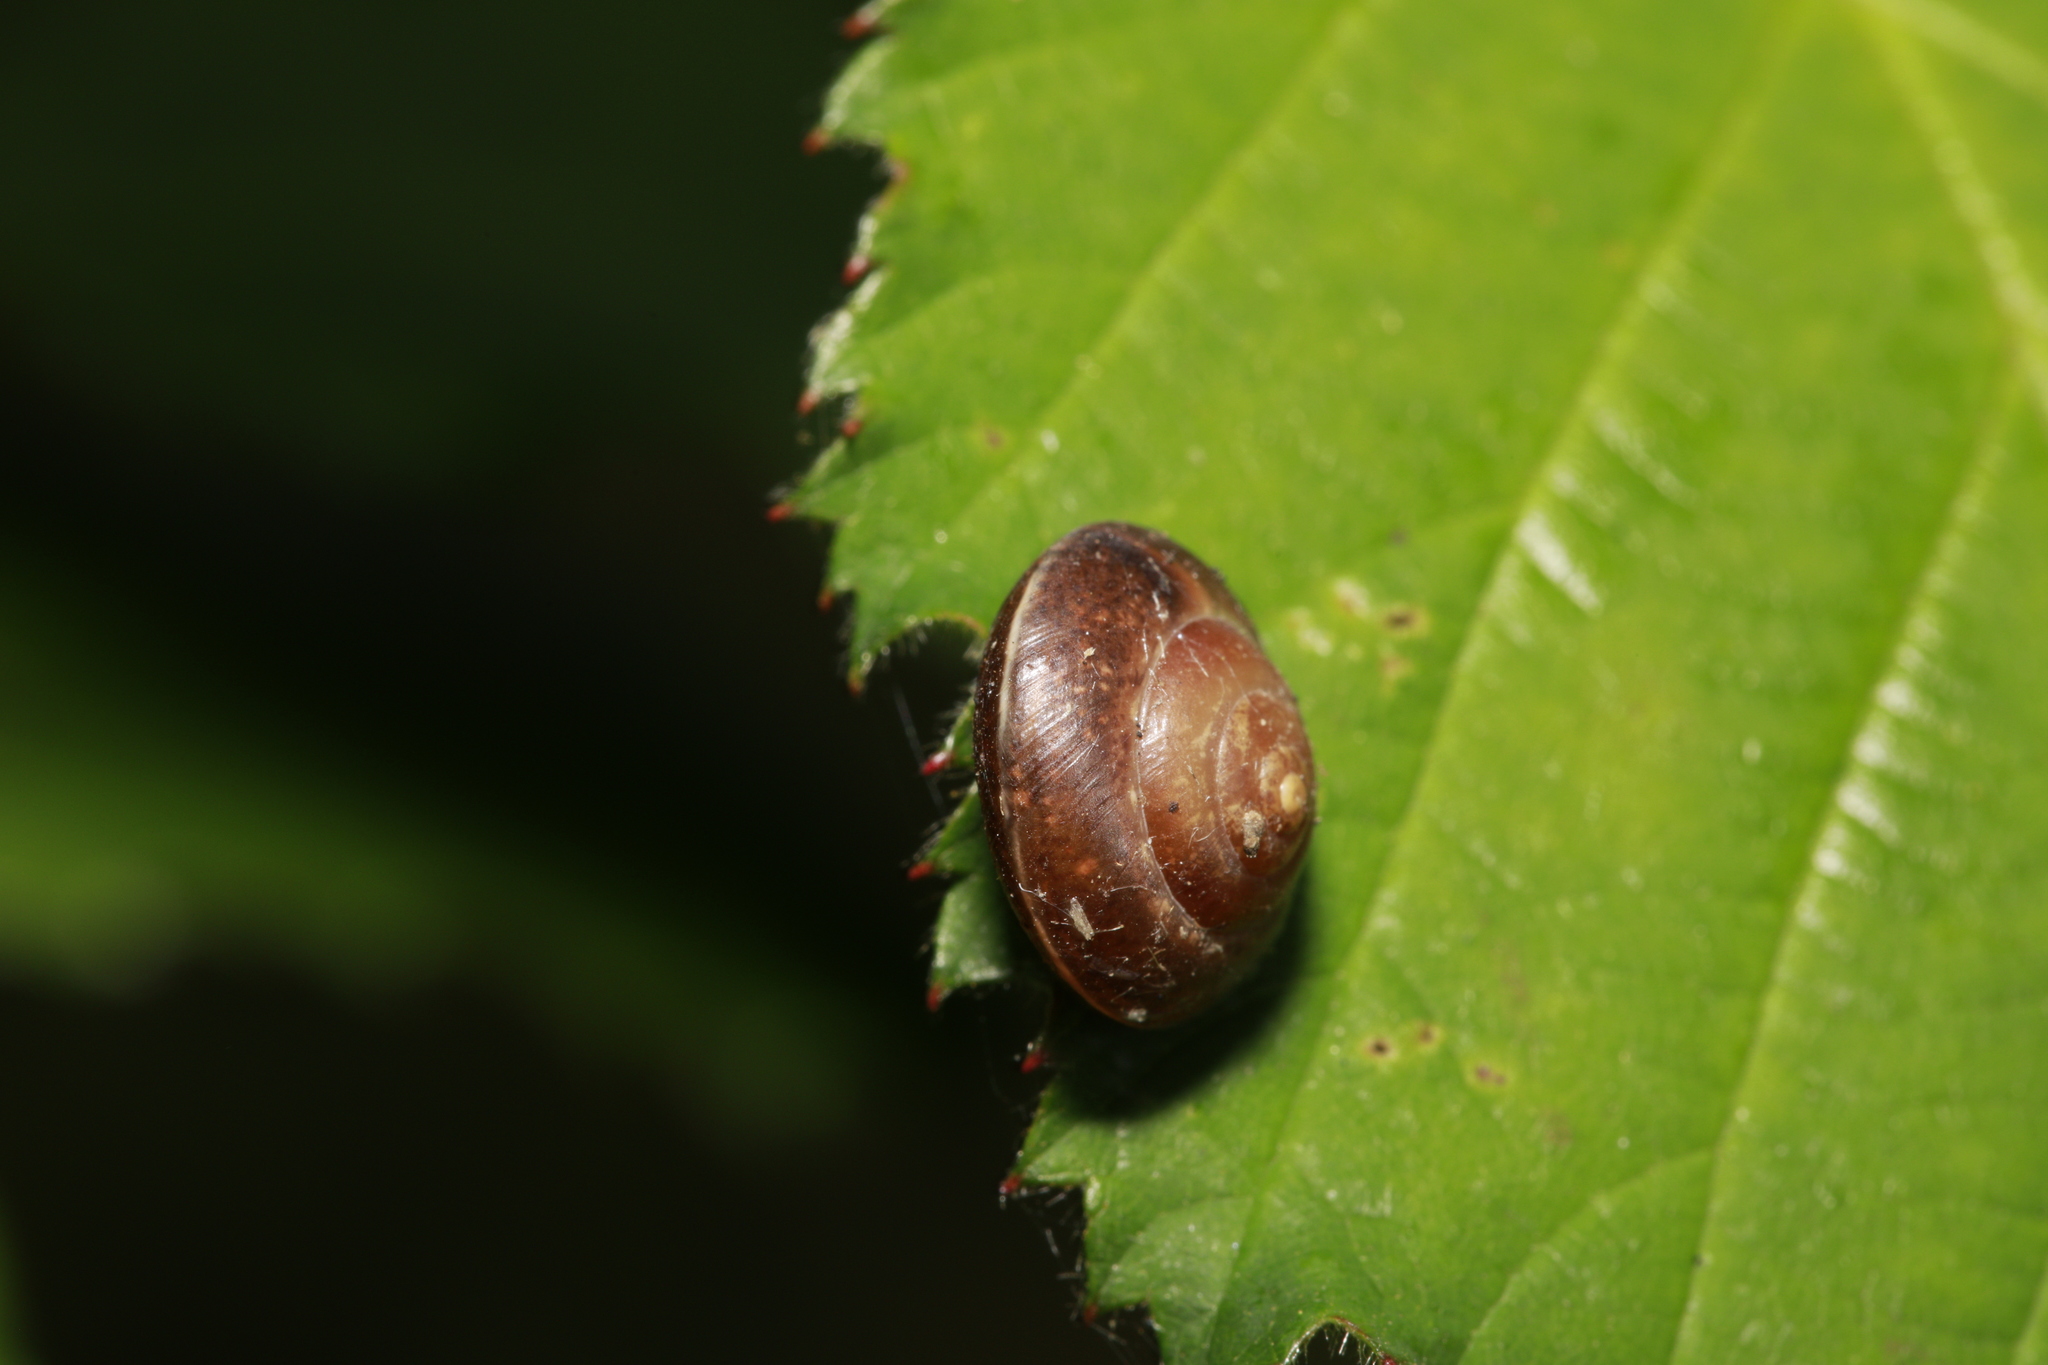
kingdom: Animalia
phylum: Mollusca
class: Gastropoda
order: Stylommatophora
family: Hygromiidae
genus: Hygromia
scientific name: Hygromia cinctella
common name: Girdled snail
